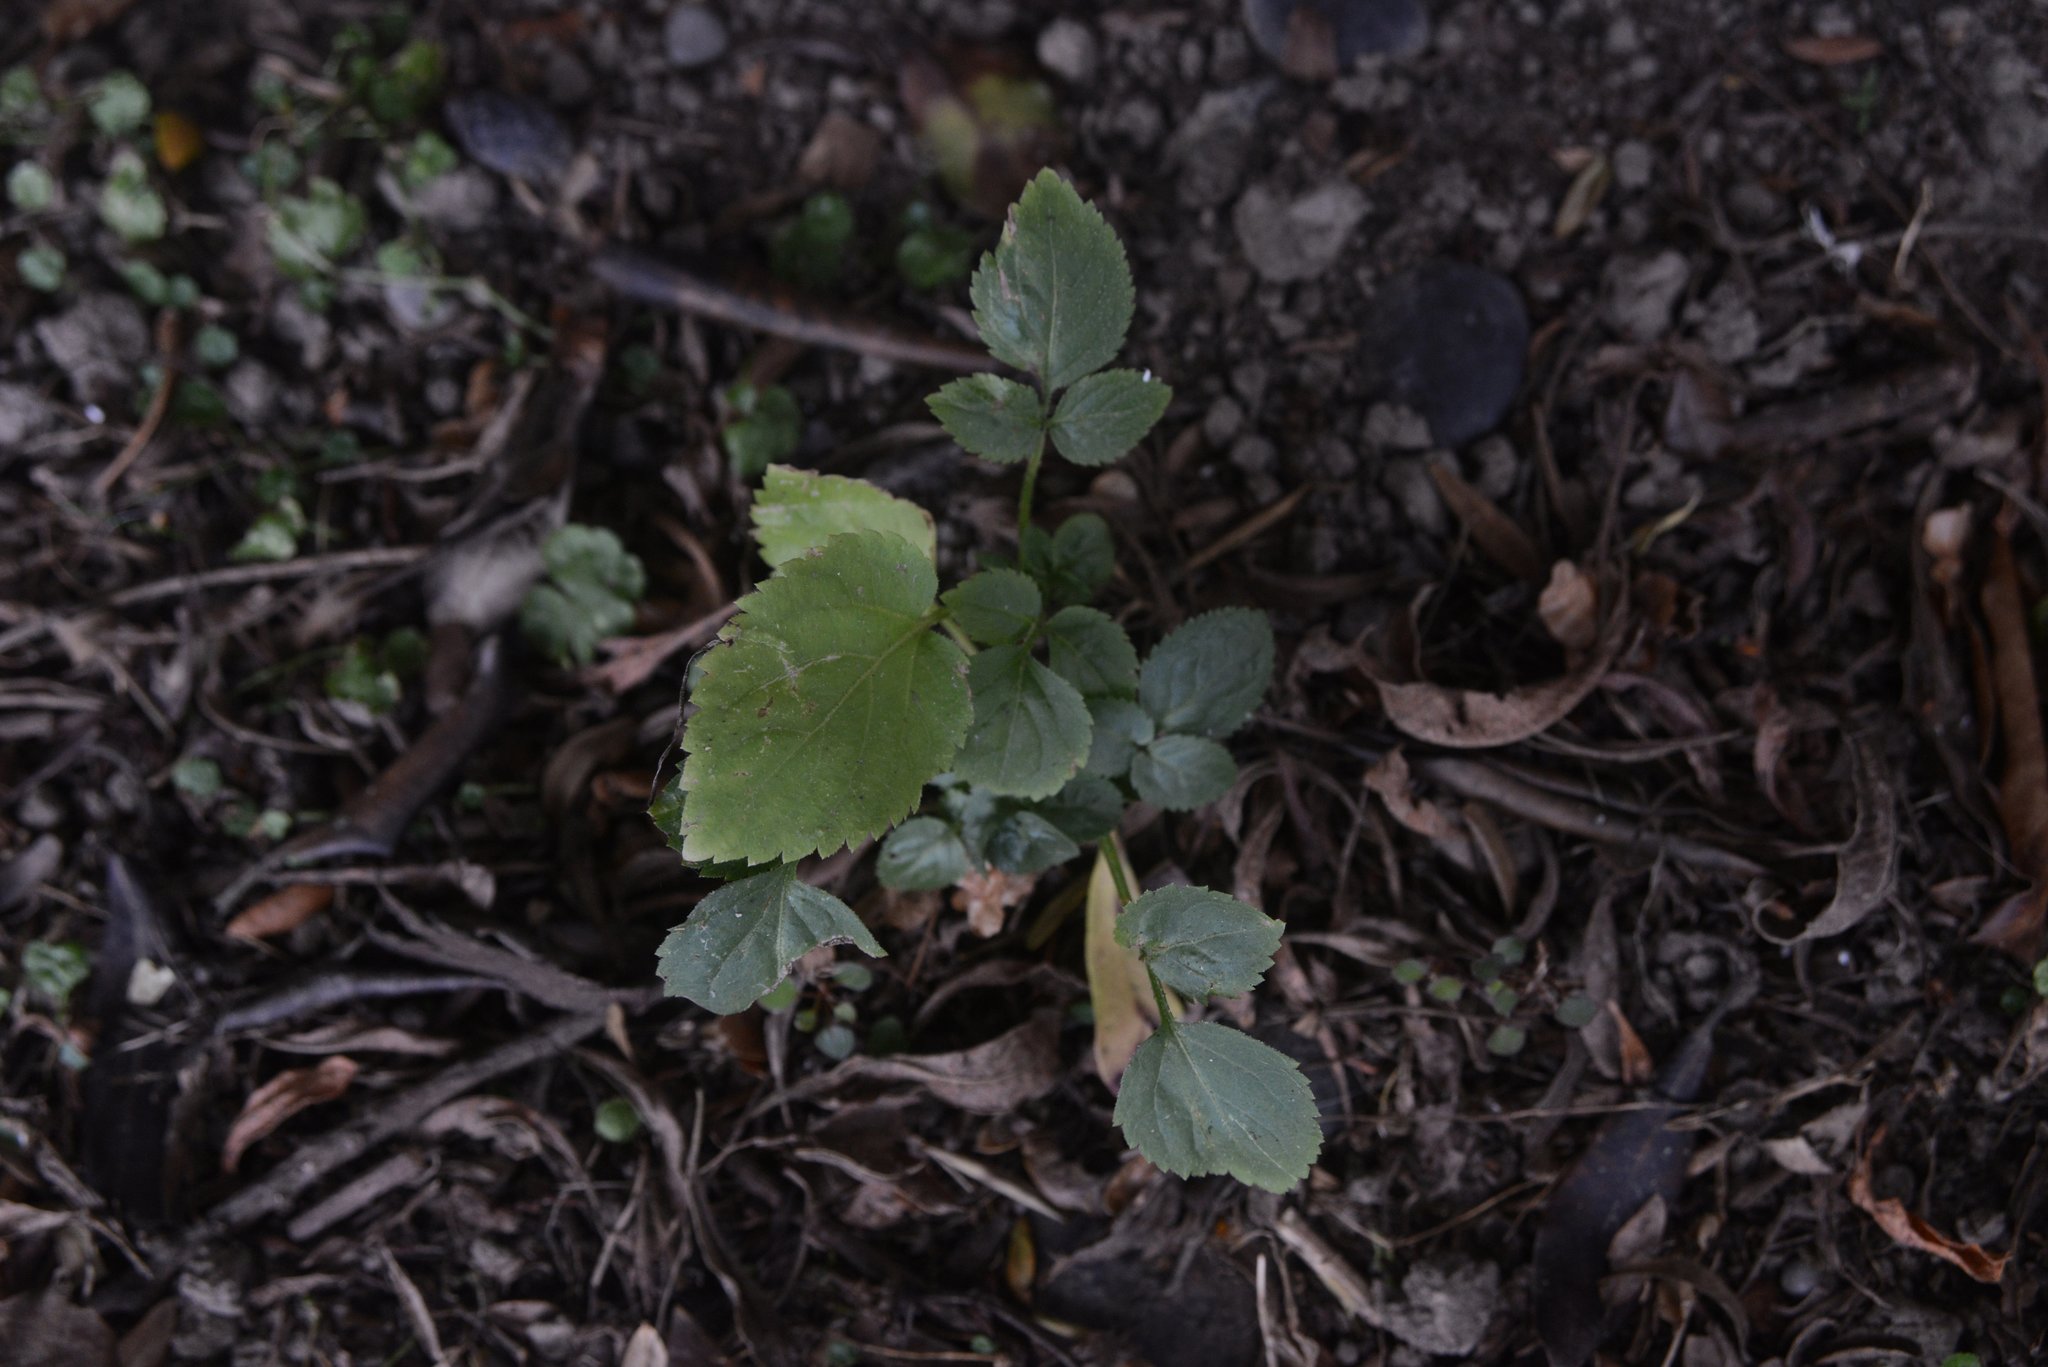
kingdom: Plantae
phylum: Tracheophyta
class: Magnoliopsida
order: Dipsacales
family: Viburnaceae
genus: Sambucus
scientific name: Sambucus nigra
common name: Elder
